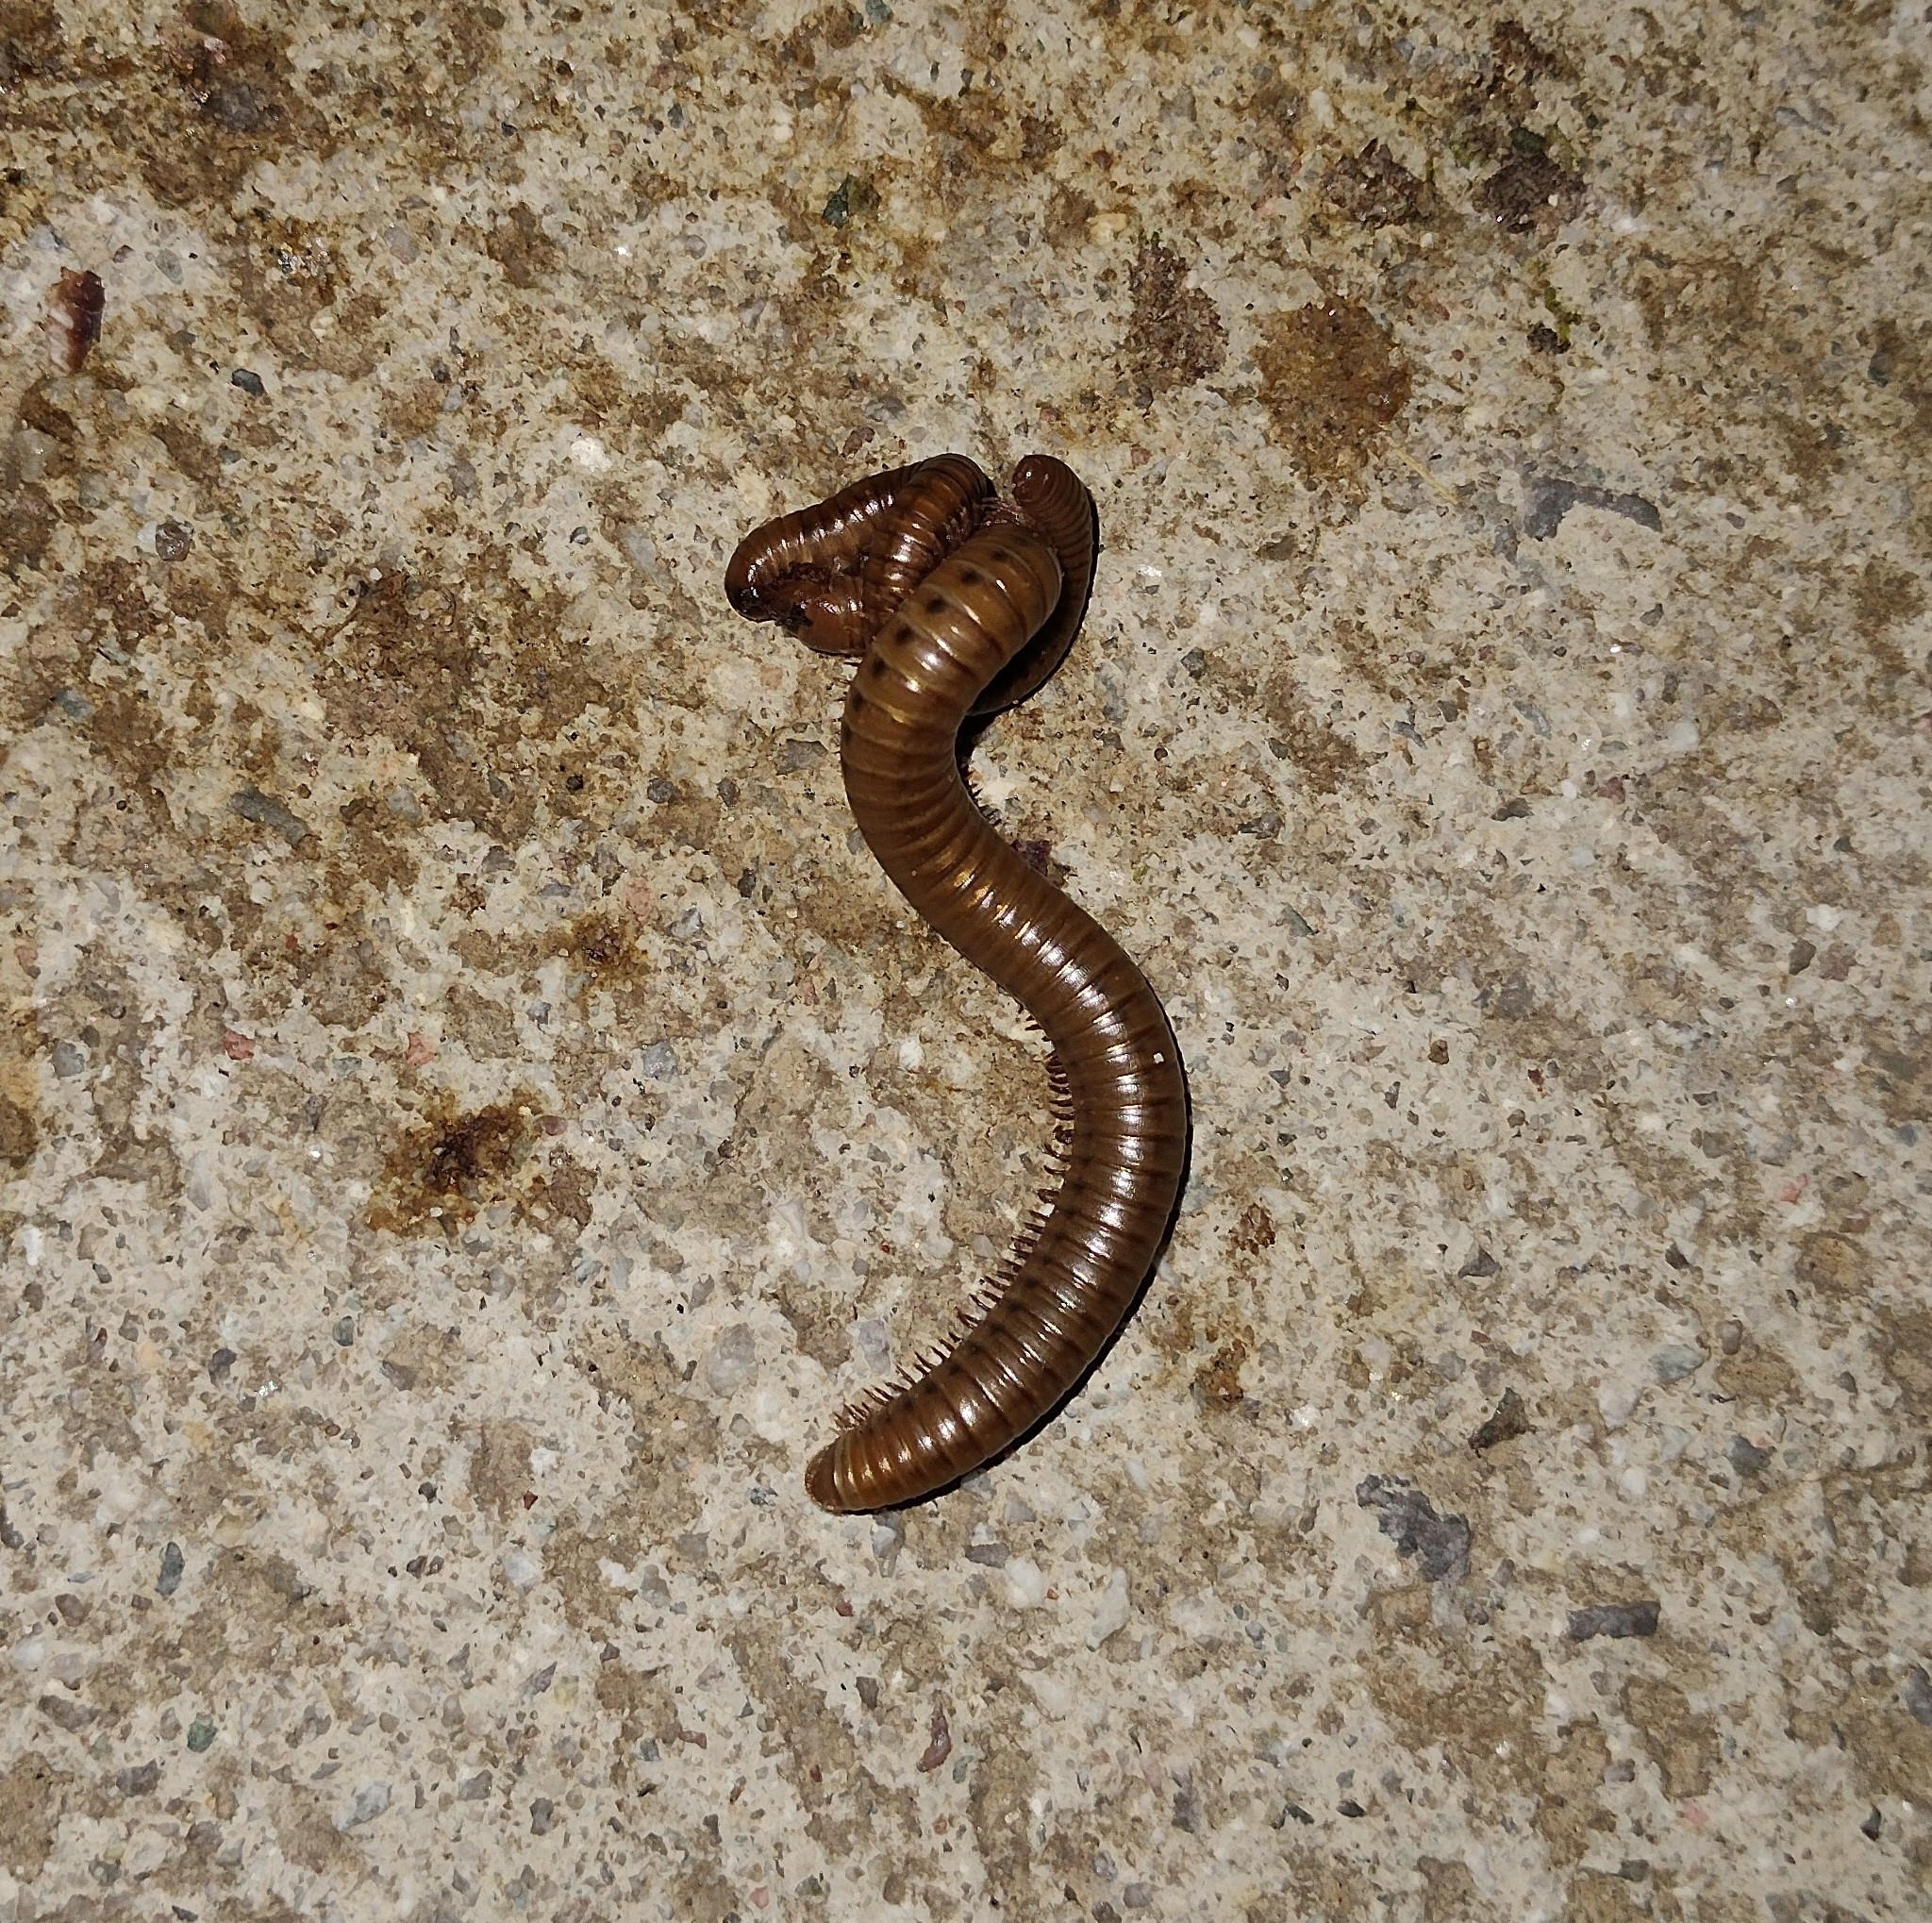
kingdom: Animalia
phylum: Arthropoda
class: Diplopoda
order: Julida
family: Julidae
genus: Pachyiulus
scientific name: Pachyiulus cattarensis
